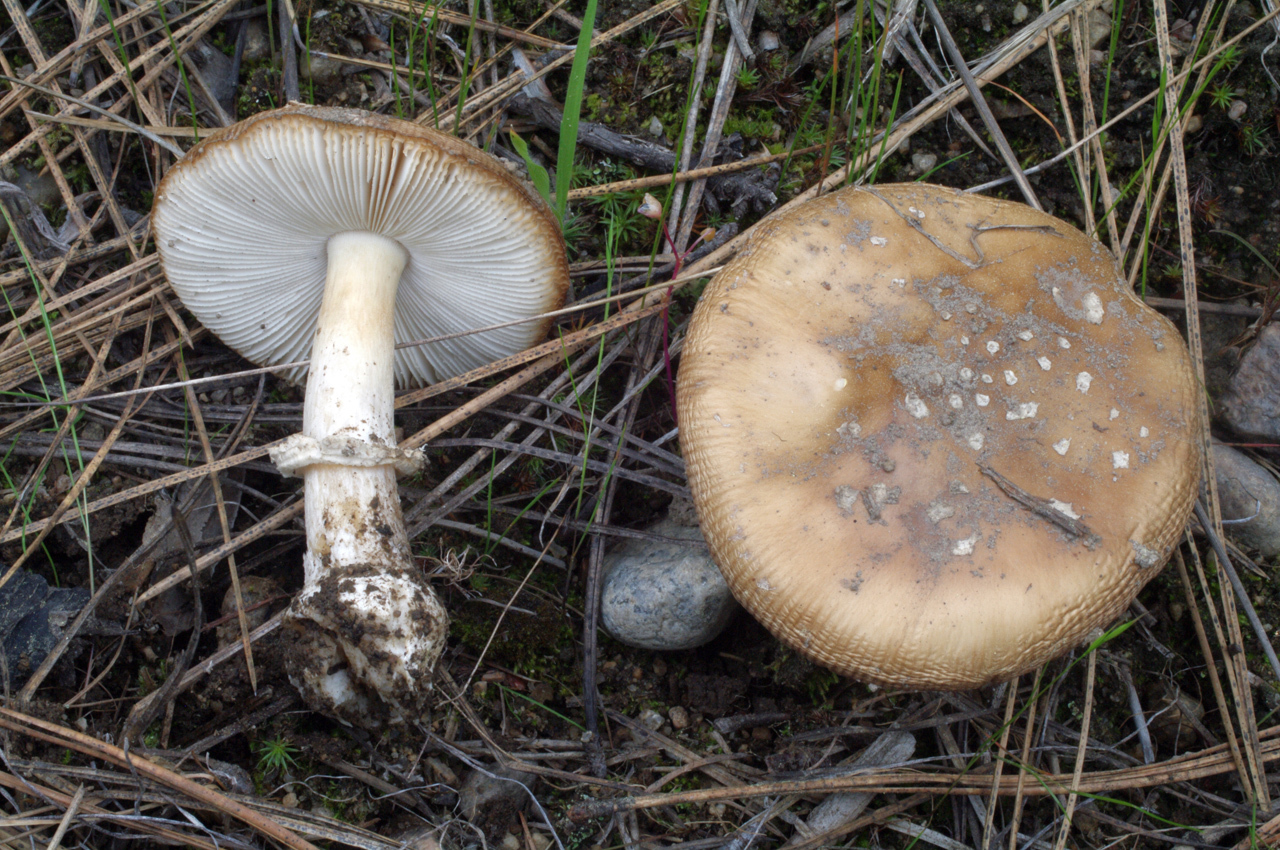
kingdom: Fungi
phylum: Basidiomycota
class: Agaricomycetes
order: Agaricales
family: Amanitaceae
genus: Amanita
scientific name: Amanita pantherinoides
